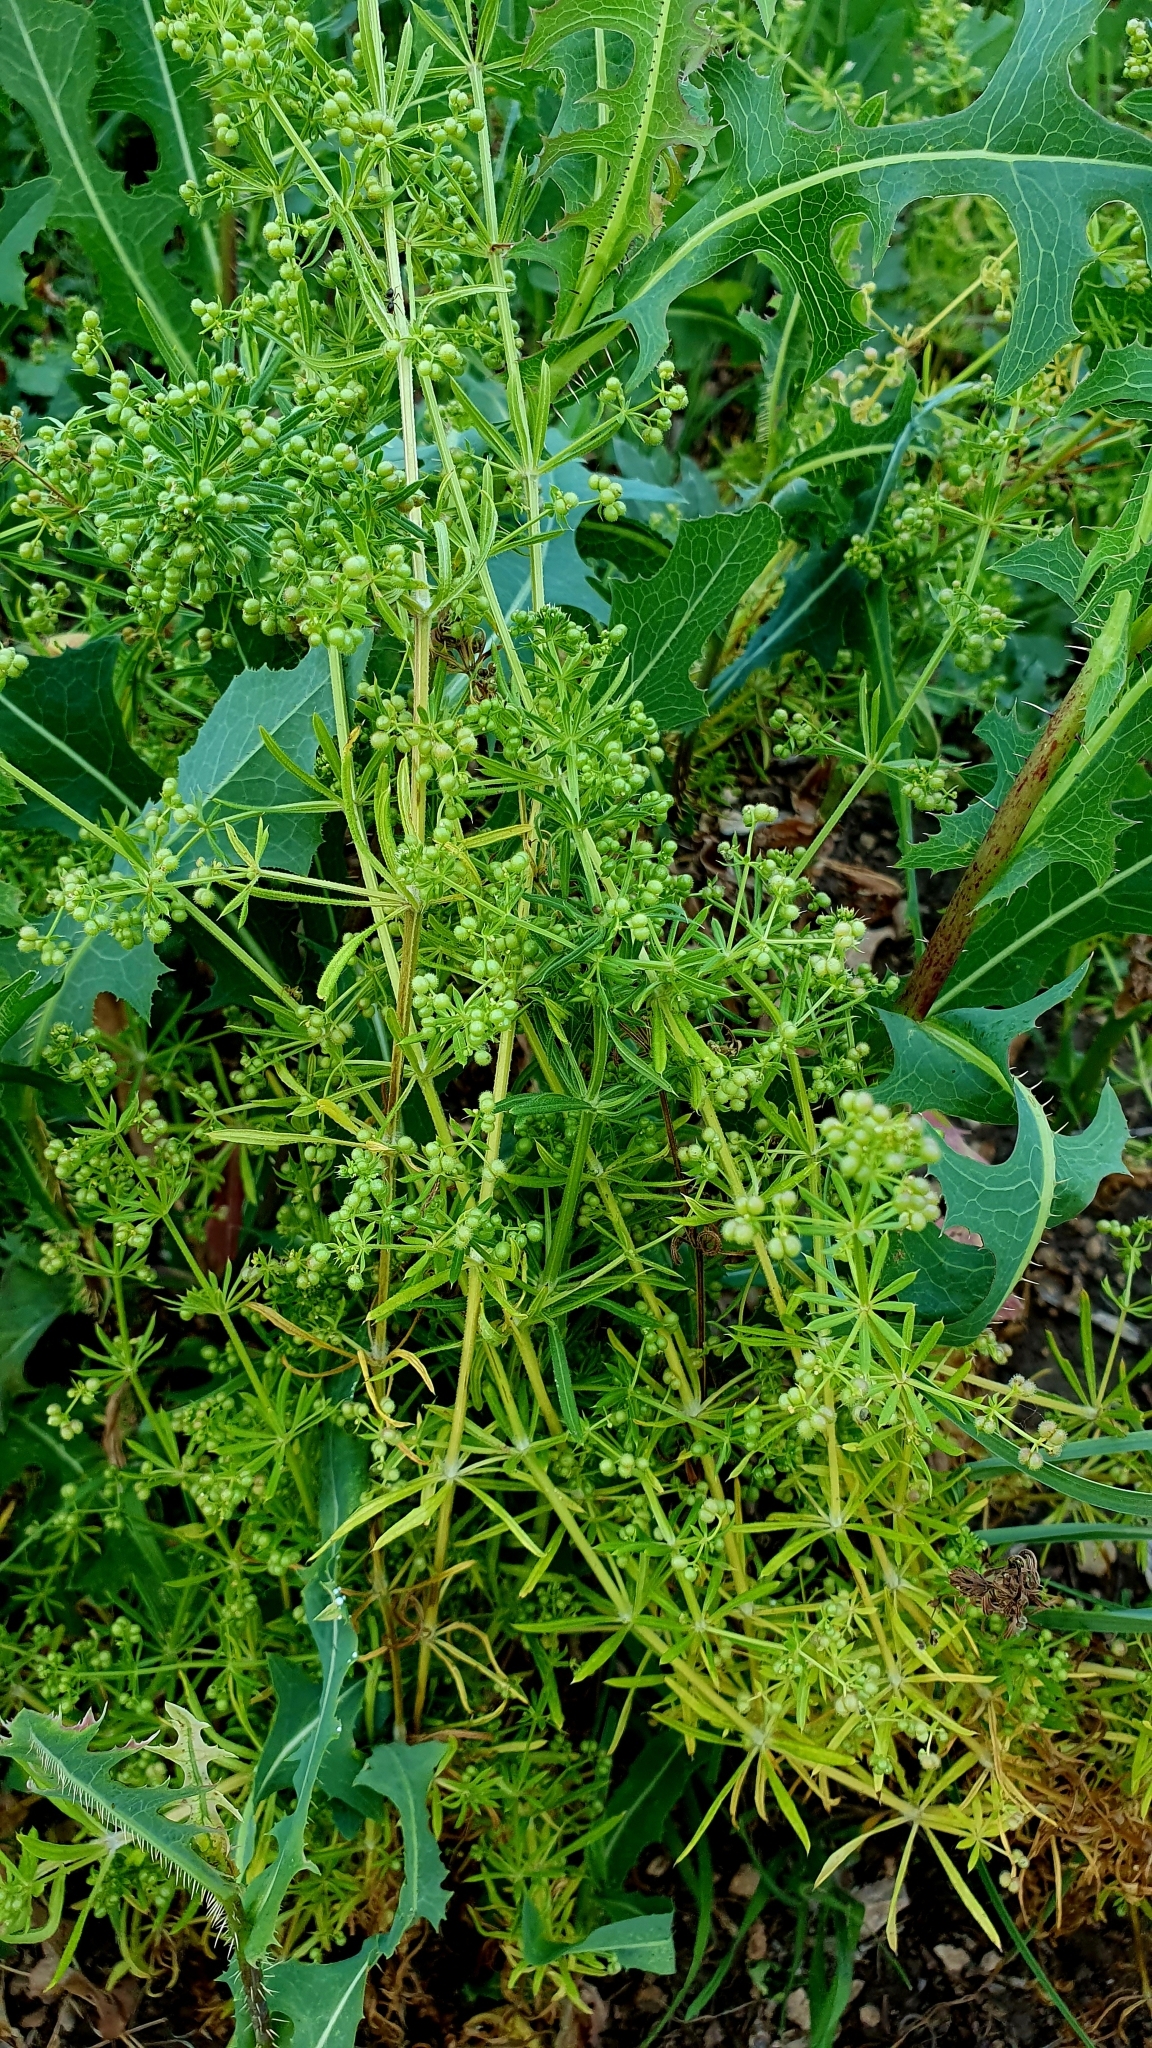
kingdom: Plantae
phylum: Tracheophyta
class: Magnoliopsida
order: Gentianales
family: Rubiaceae
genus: Galium
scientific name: Galium
